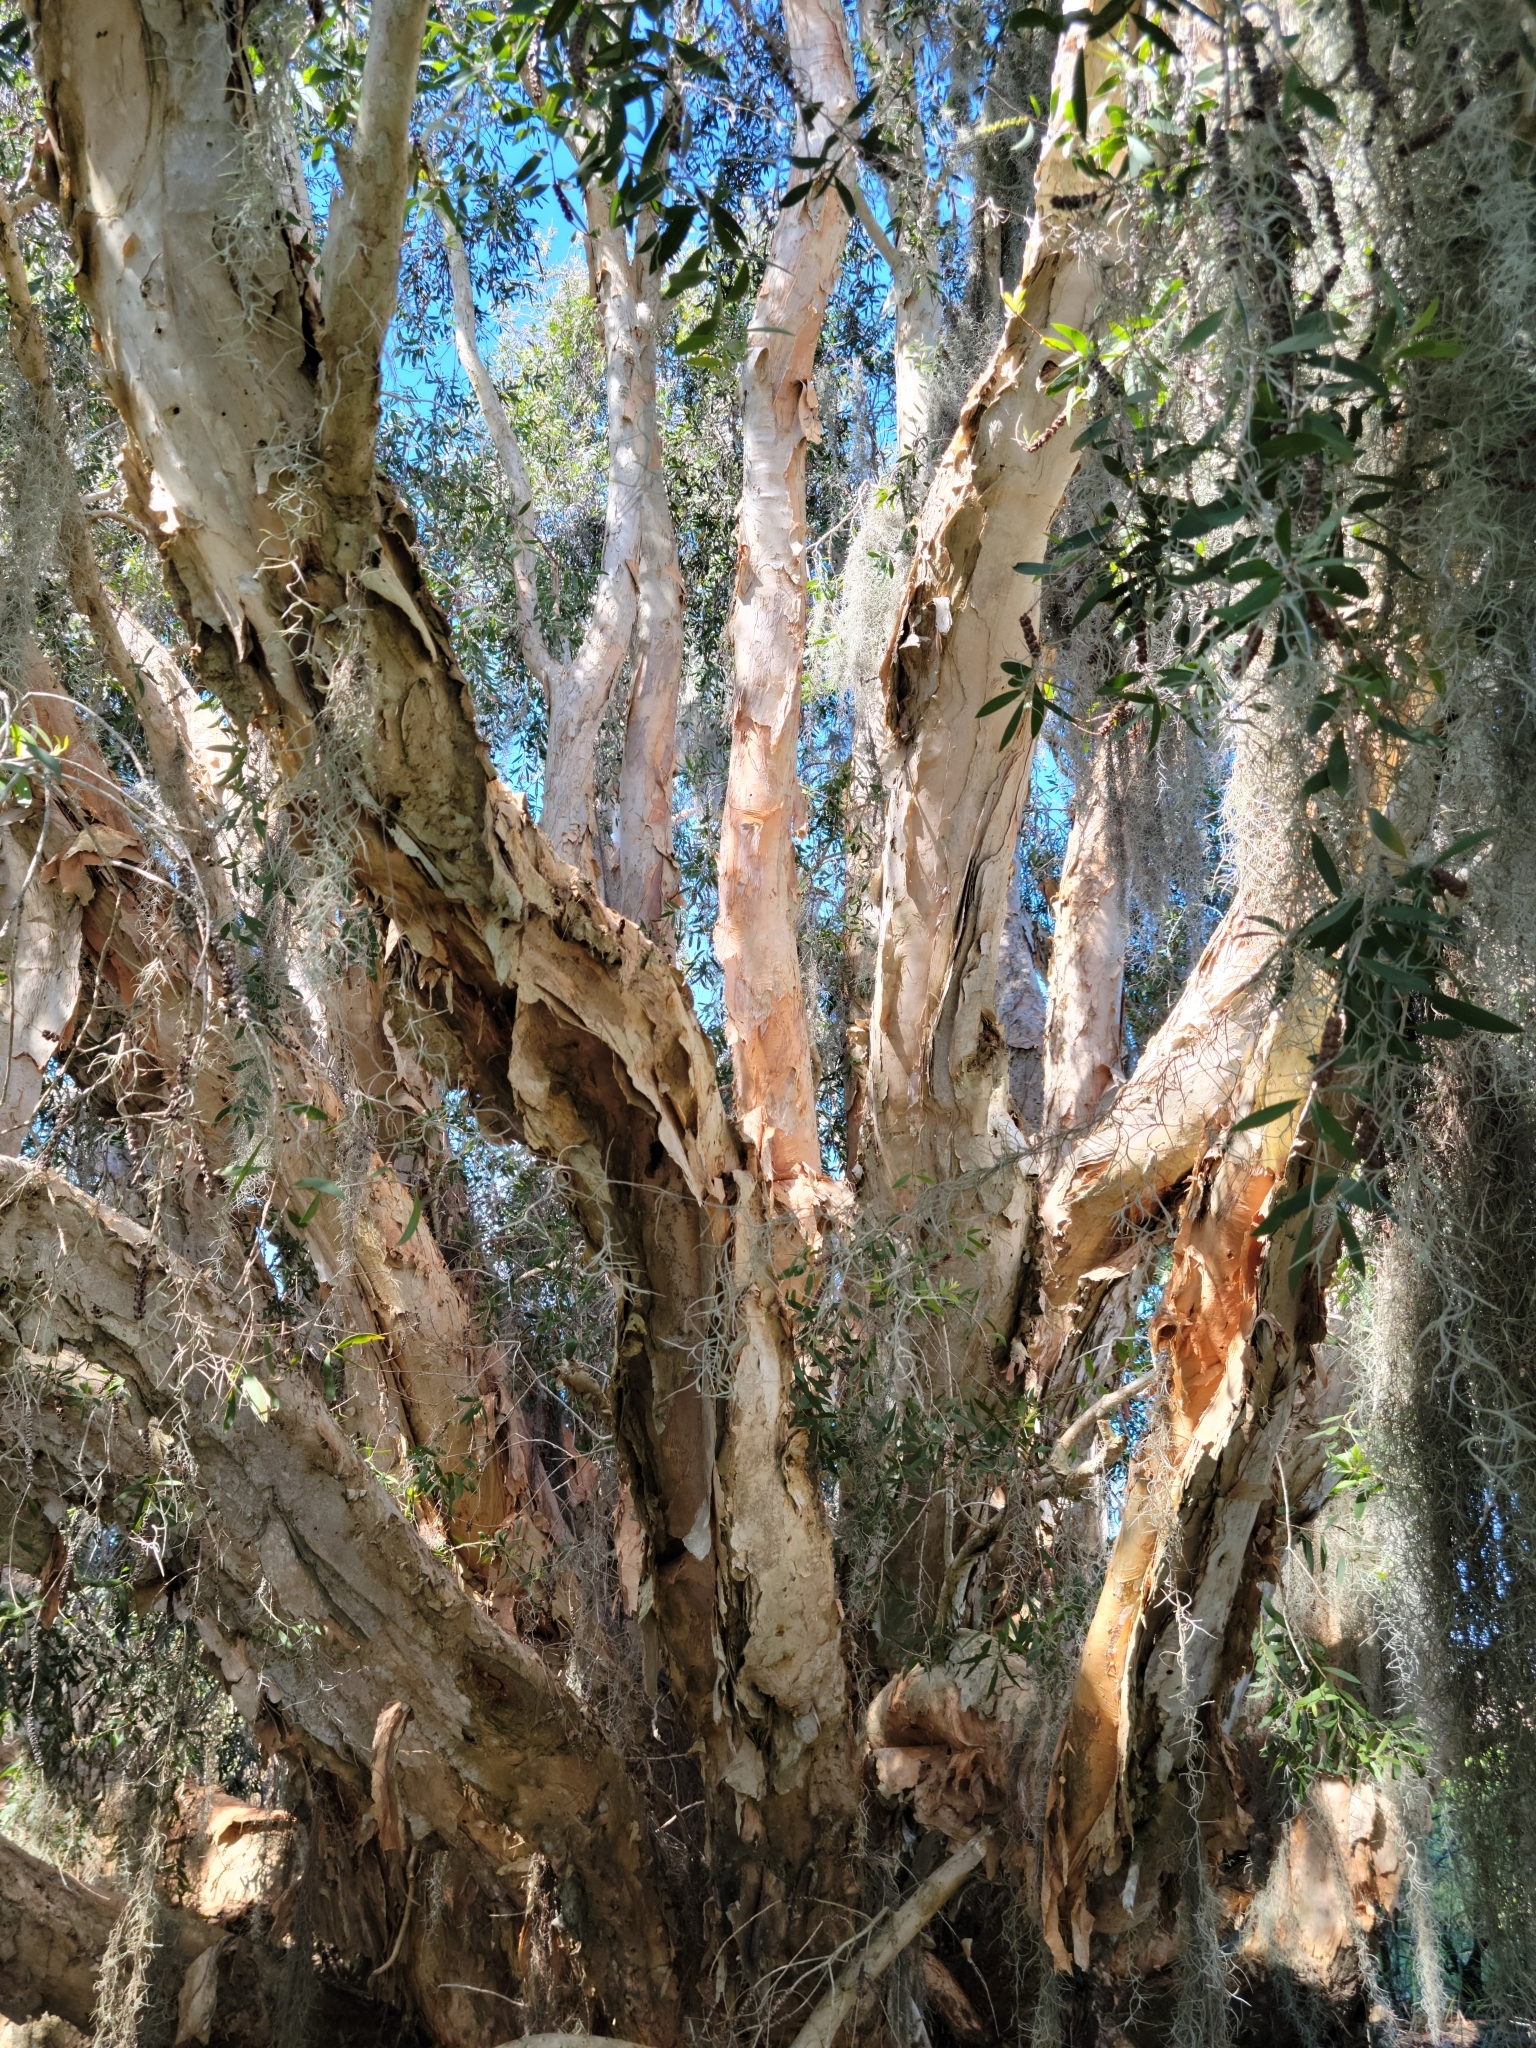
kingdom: Plantae
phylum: Tracheophyta
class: Magnoliopsida
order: Myrtales
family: Myrtaceae
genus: Melaleuca
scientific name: Melaleuca quinquenervia
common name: Punktree
